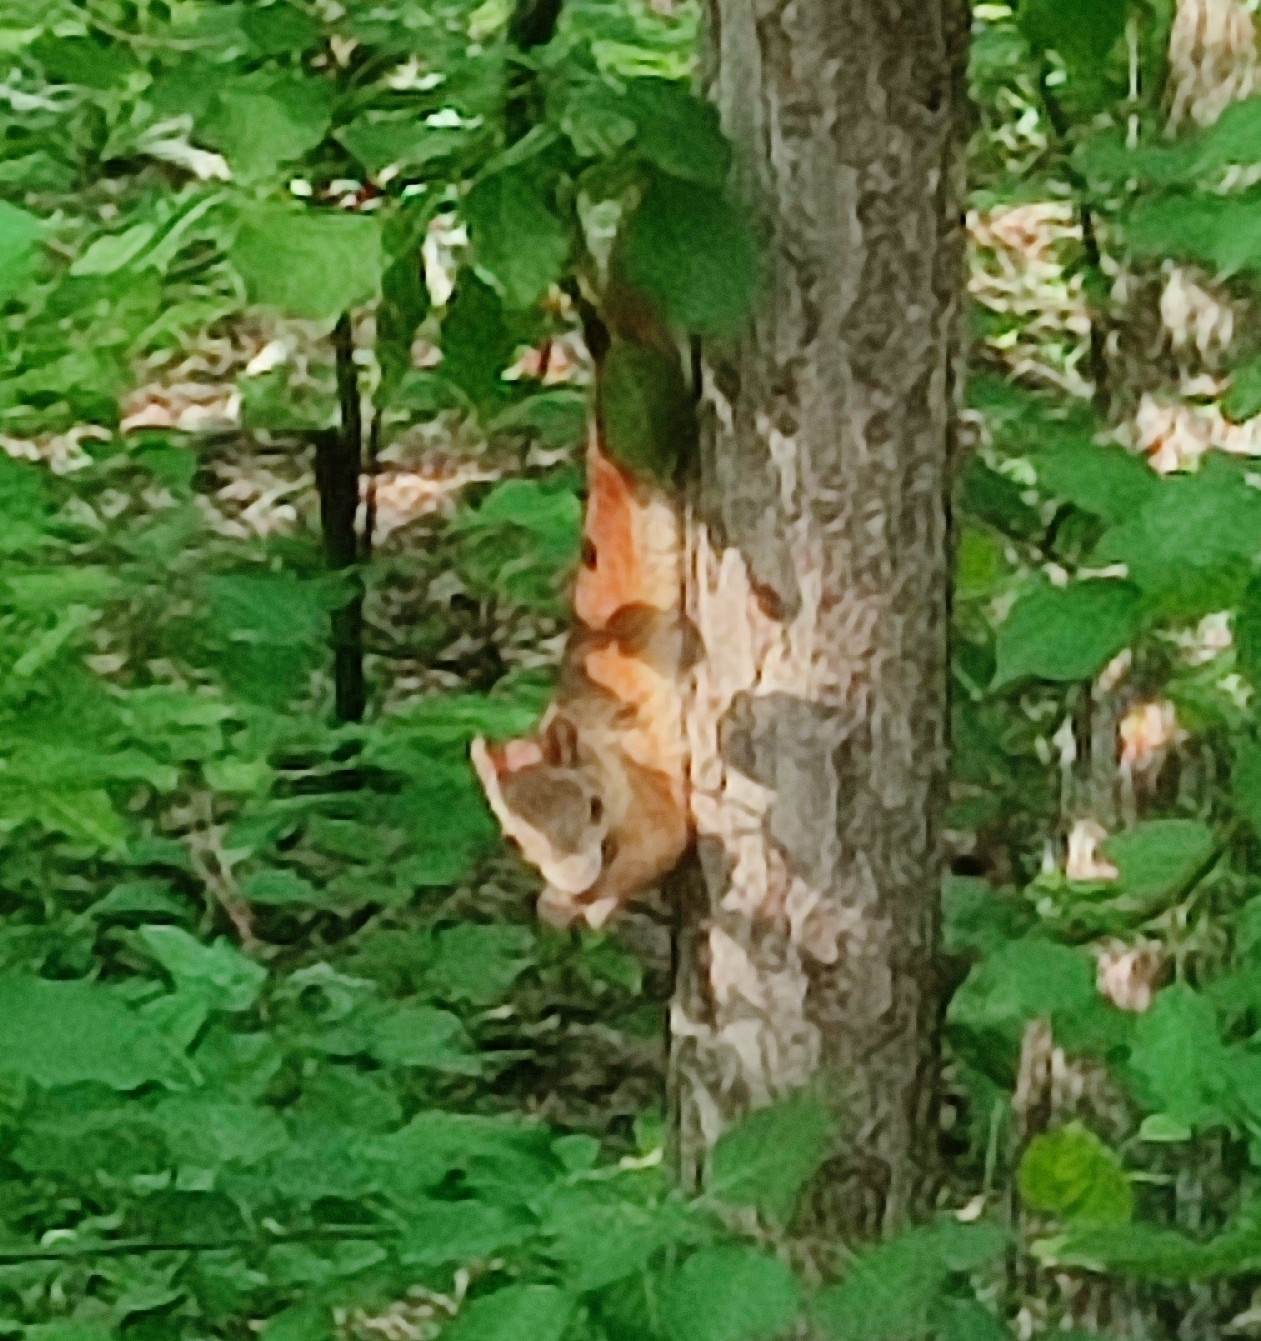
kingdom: Animalia
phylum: Chordata
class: Mammalia
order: Rodentia
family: Sciuridae
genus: Sciurus
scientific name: Sciurus vulgaris
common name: Eurasian red squirrel
